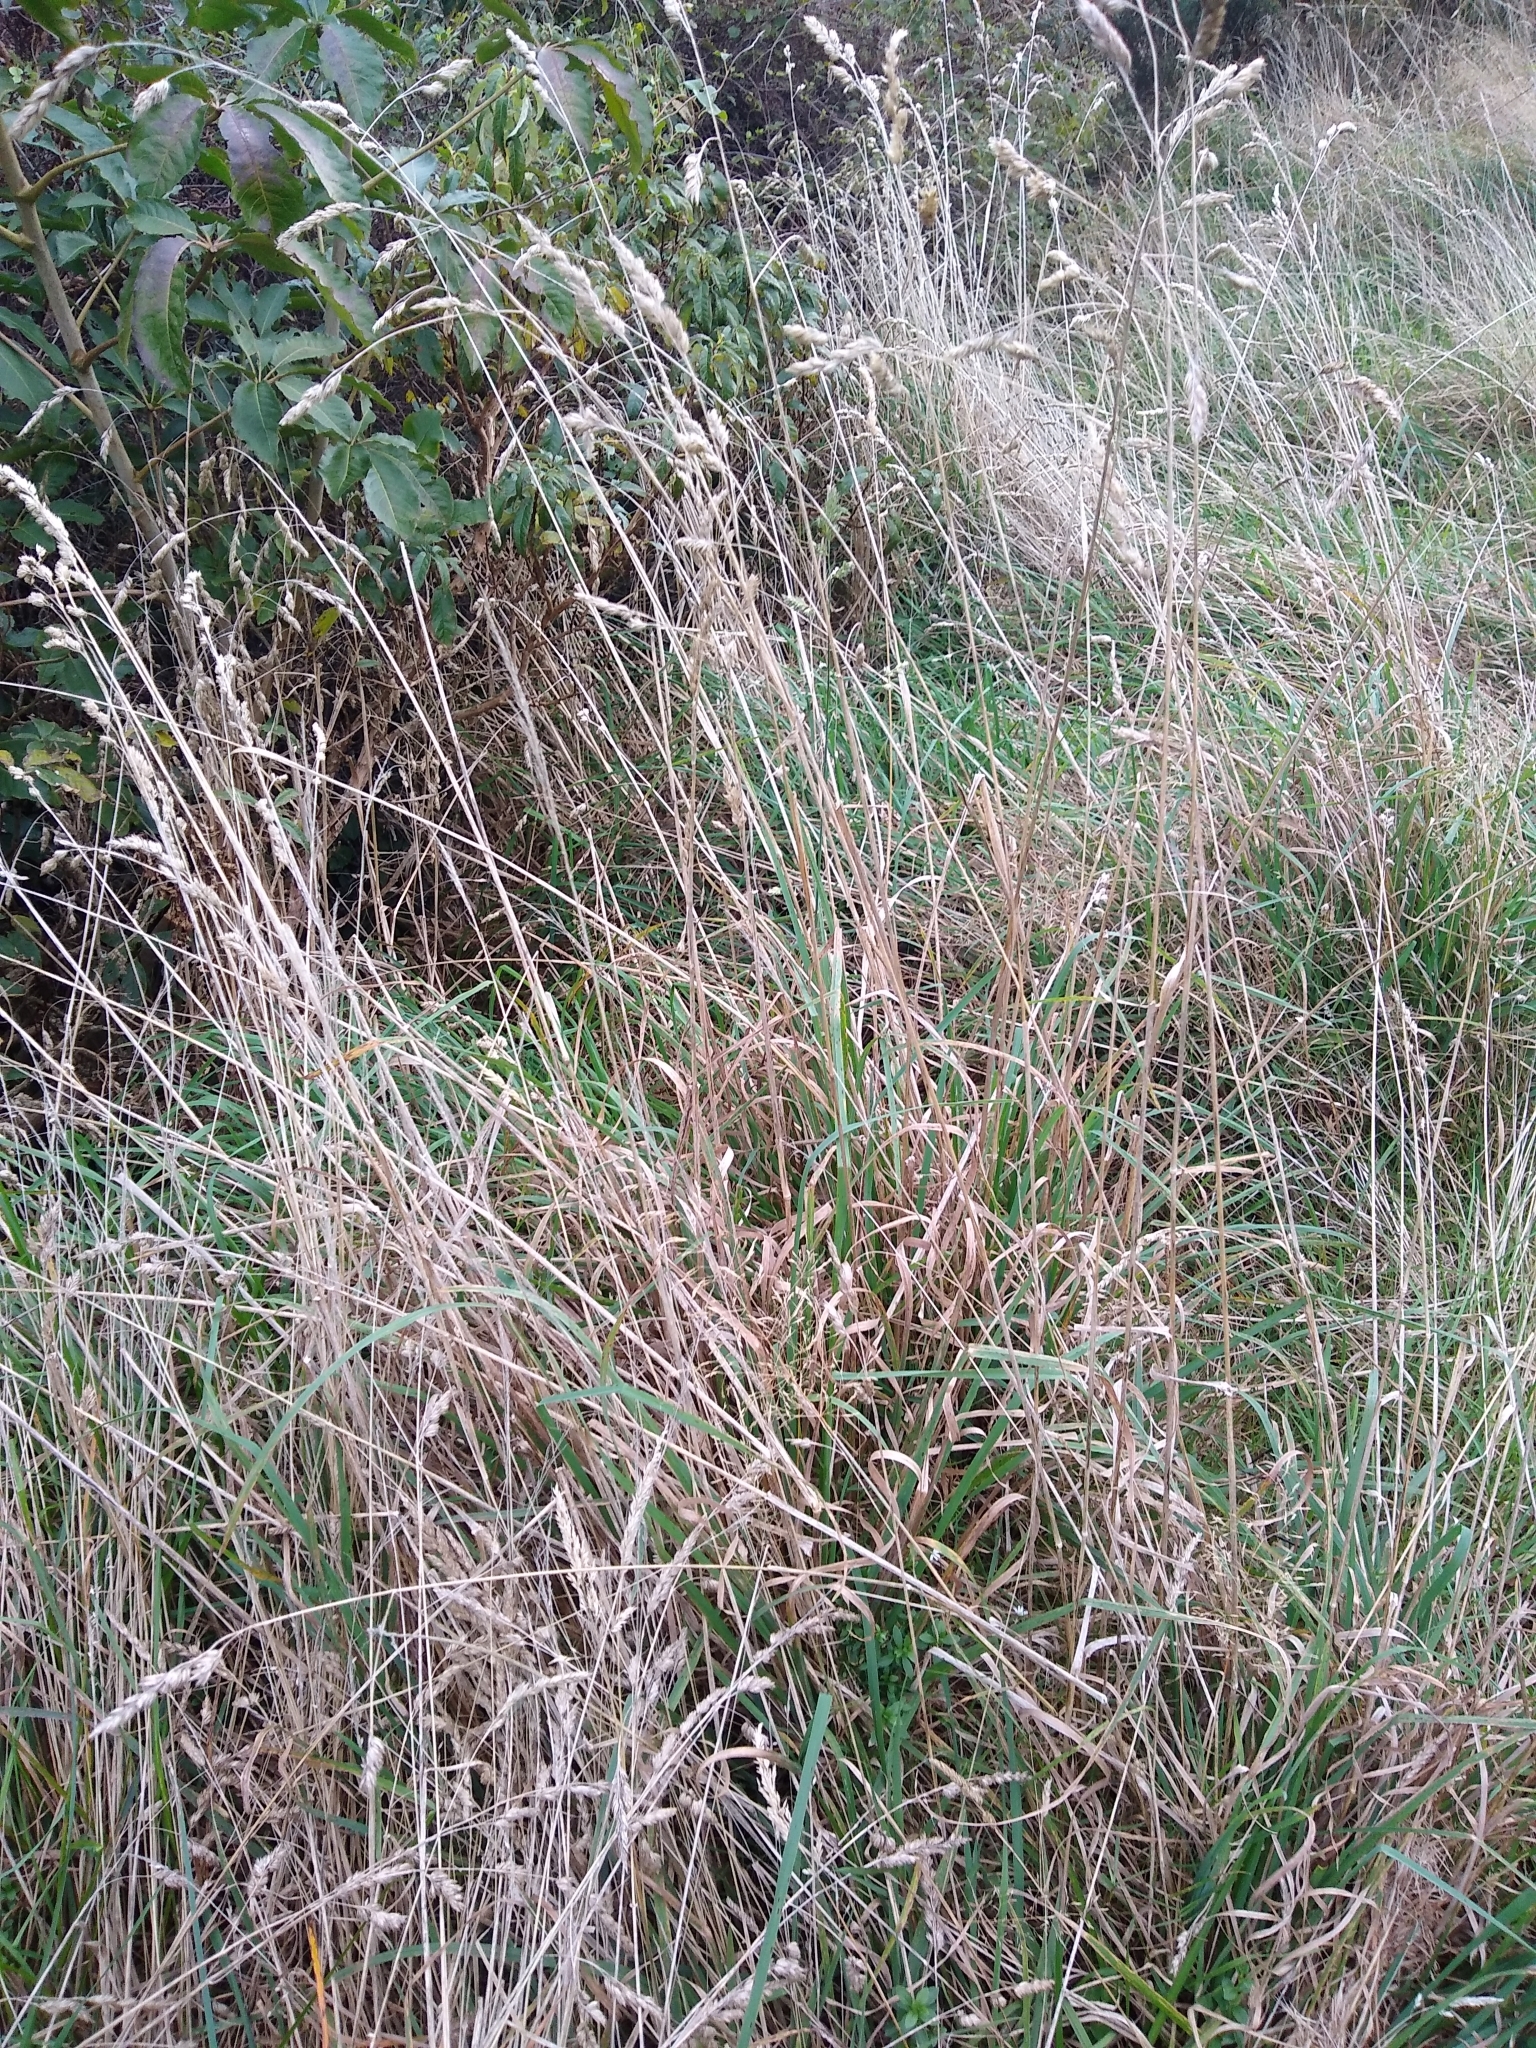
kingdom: Plantae
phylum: Tracheophyta
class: Liliopsida
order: Poales
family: Poaceae
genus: Dactylis
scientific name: Dactylis glomerata
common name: Orchardgrass
